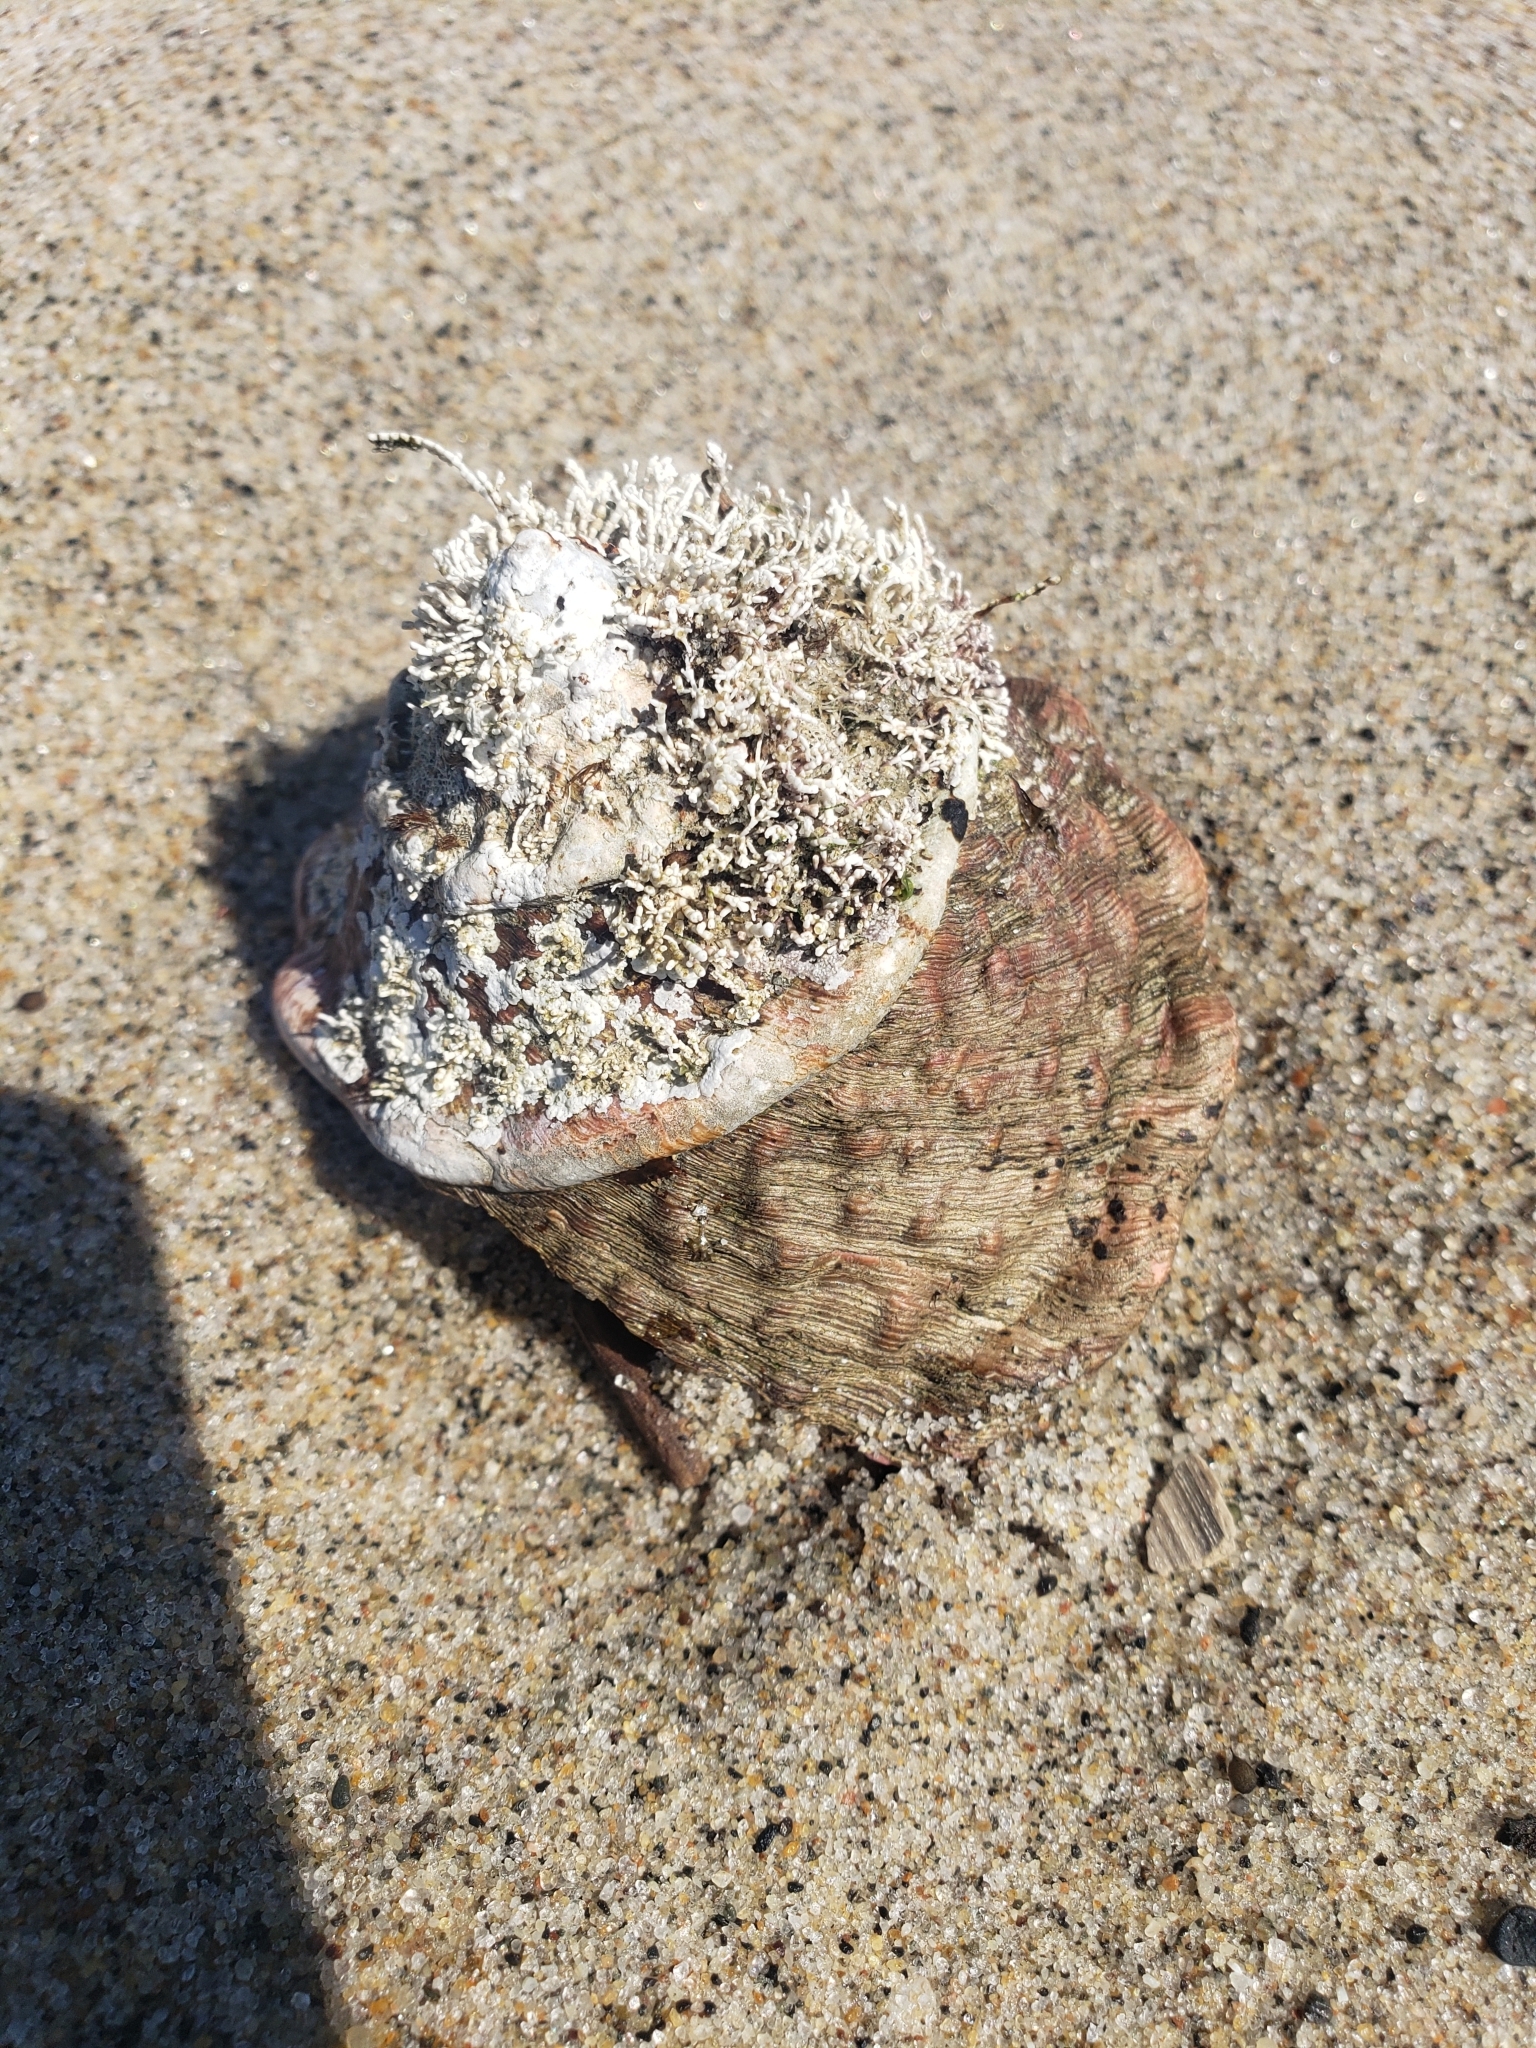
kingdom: Animalia
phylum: Mollusca
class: Gastropoda
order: Trochida
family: Turbinidae
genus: Megastraea
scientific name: Megastraea undosa
